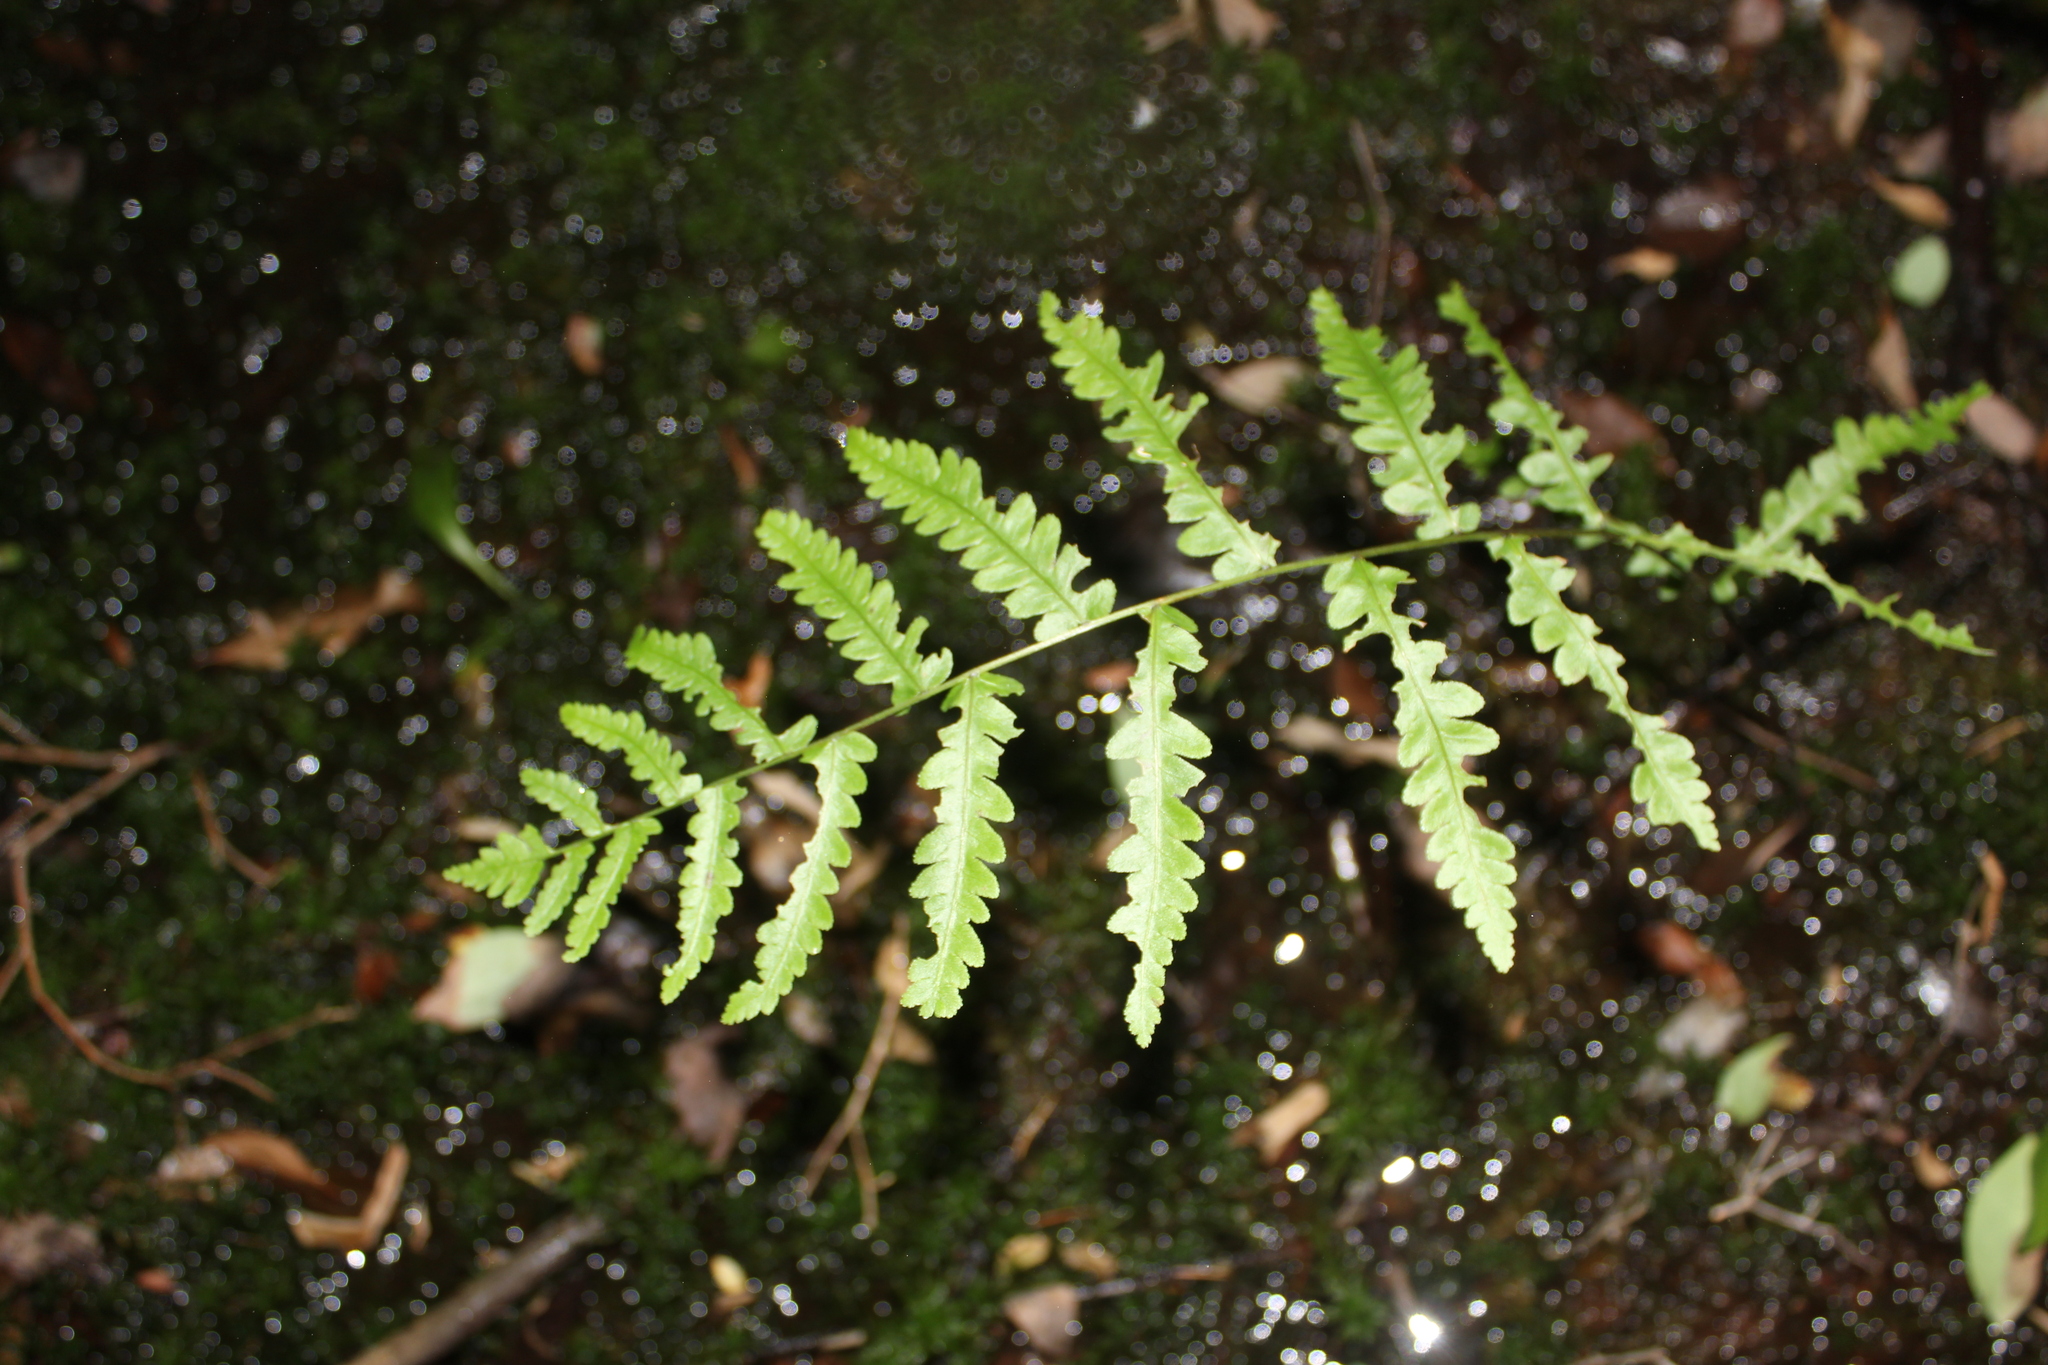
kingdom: Plantae
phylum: Tracheophyta
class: Polypodiopsida
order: Polypodiales
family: Blechnaceae
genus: Anchistea
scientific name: Anchistea virginica
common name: Virginia chain fern
